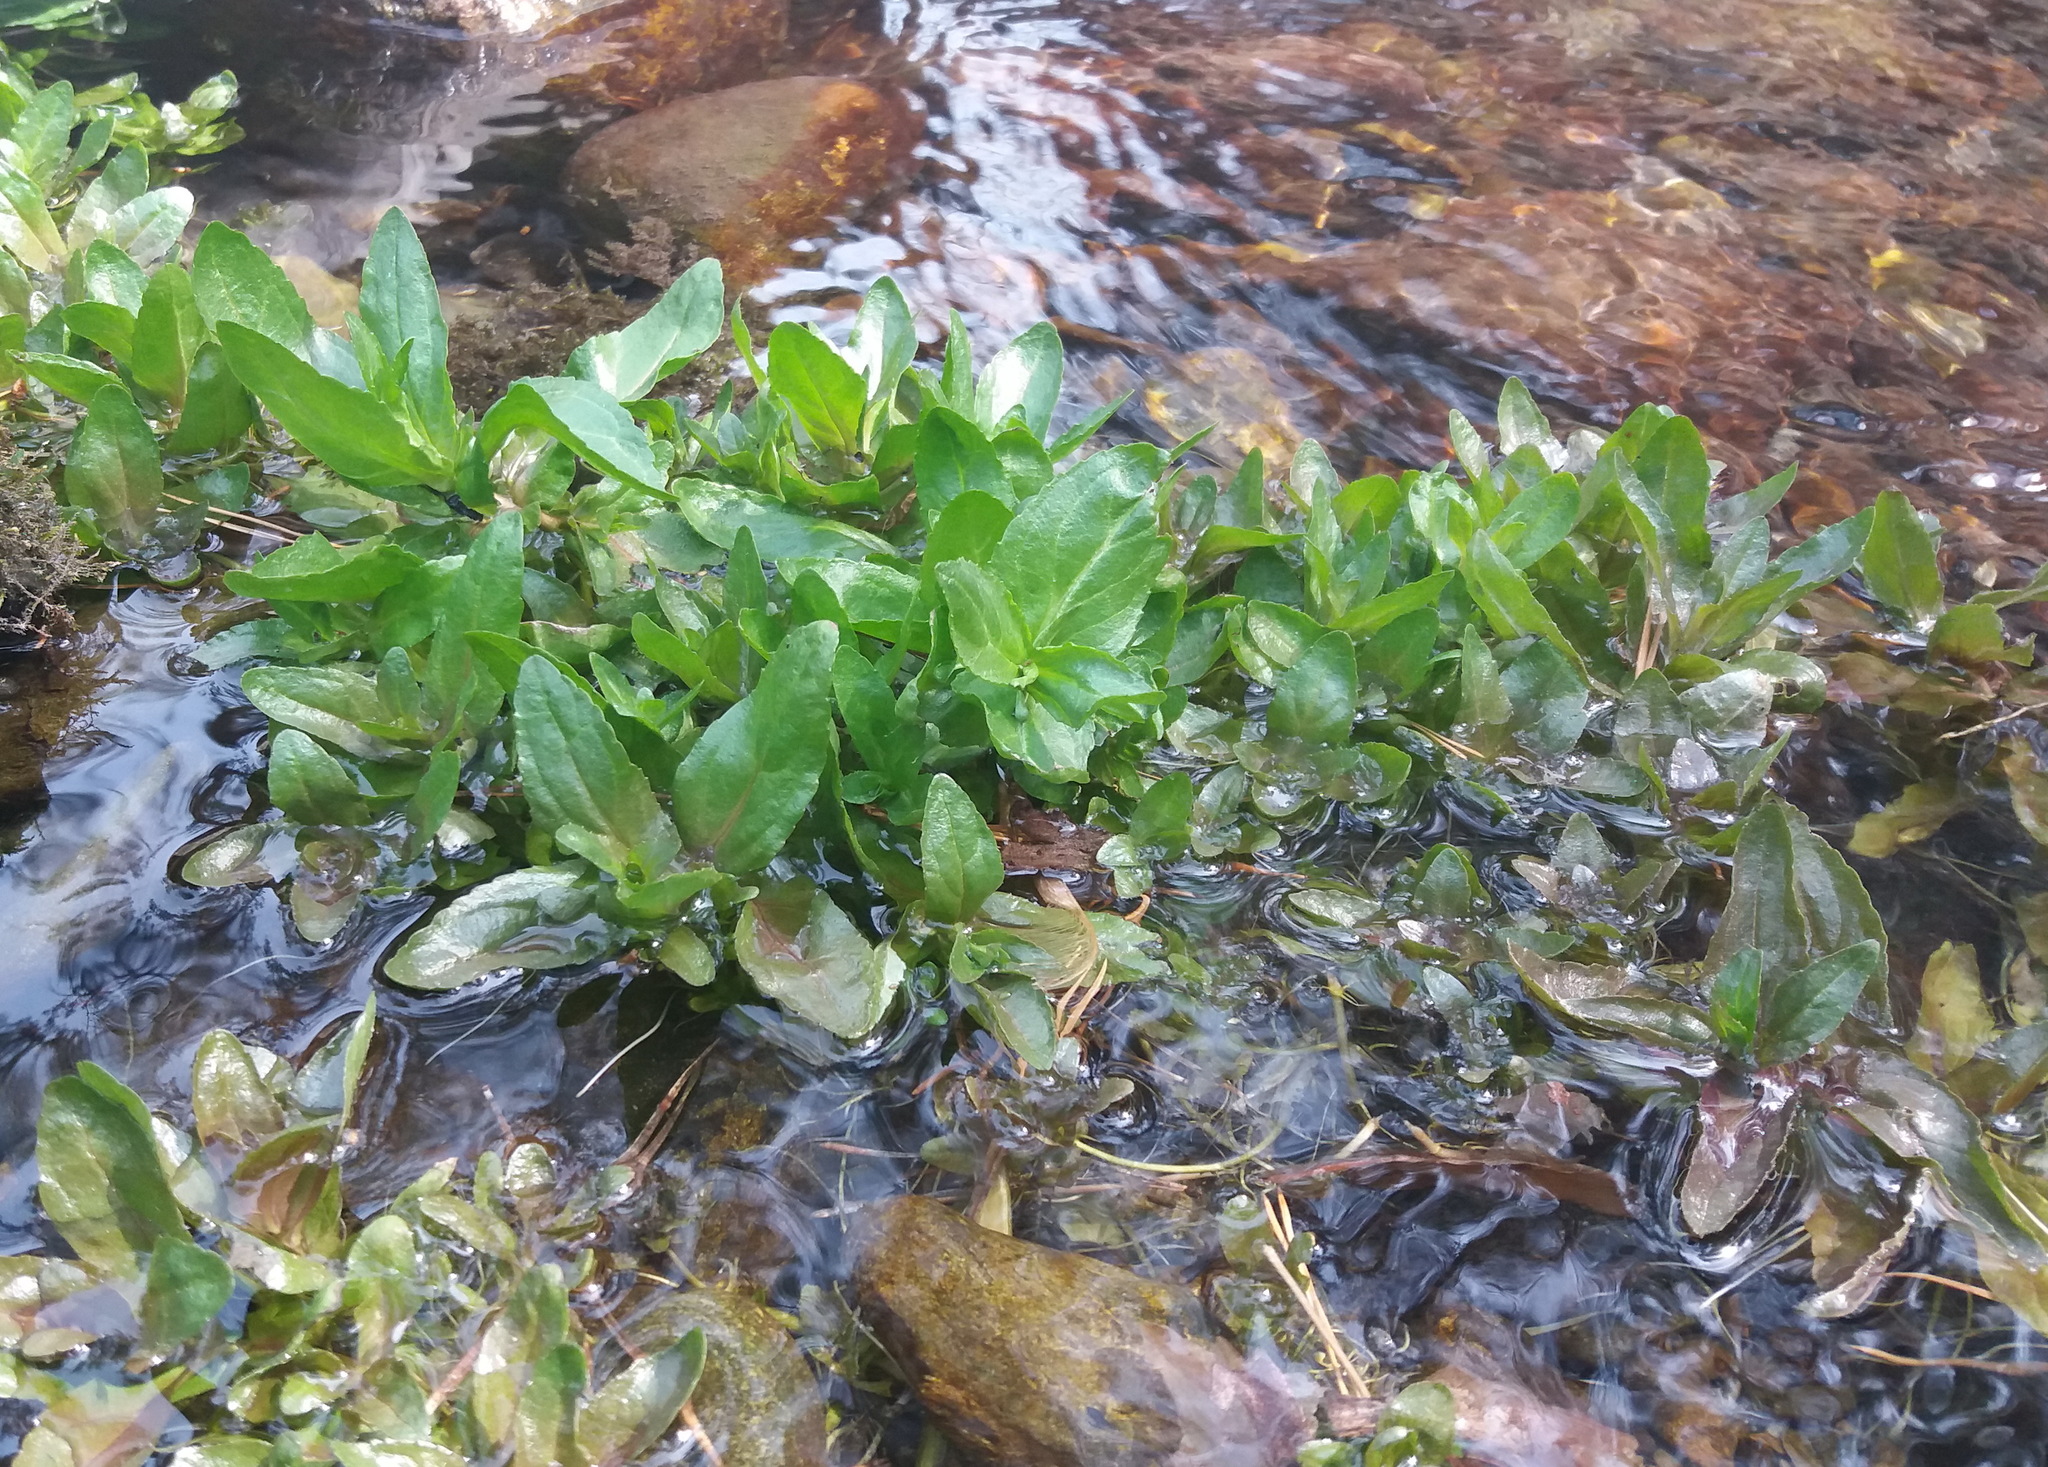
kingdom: Plantae
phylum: Tracheophyta
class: Magnoliopsida
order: Lamiales
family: Plantaginaceae
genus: Veronica
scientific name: Veronica anagallis-aquatica
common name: Water speedwell
